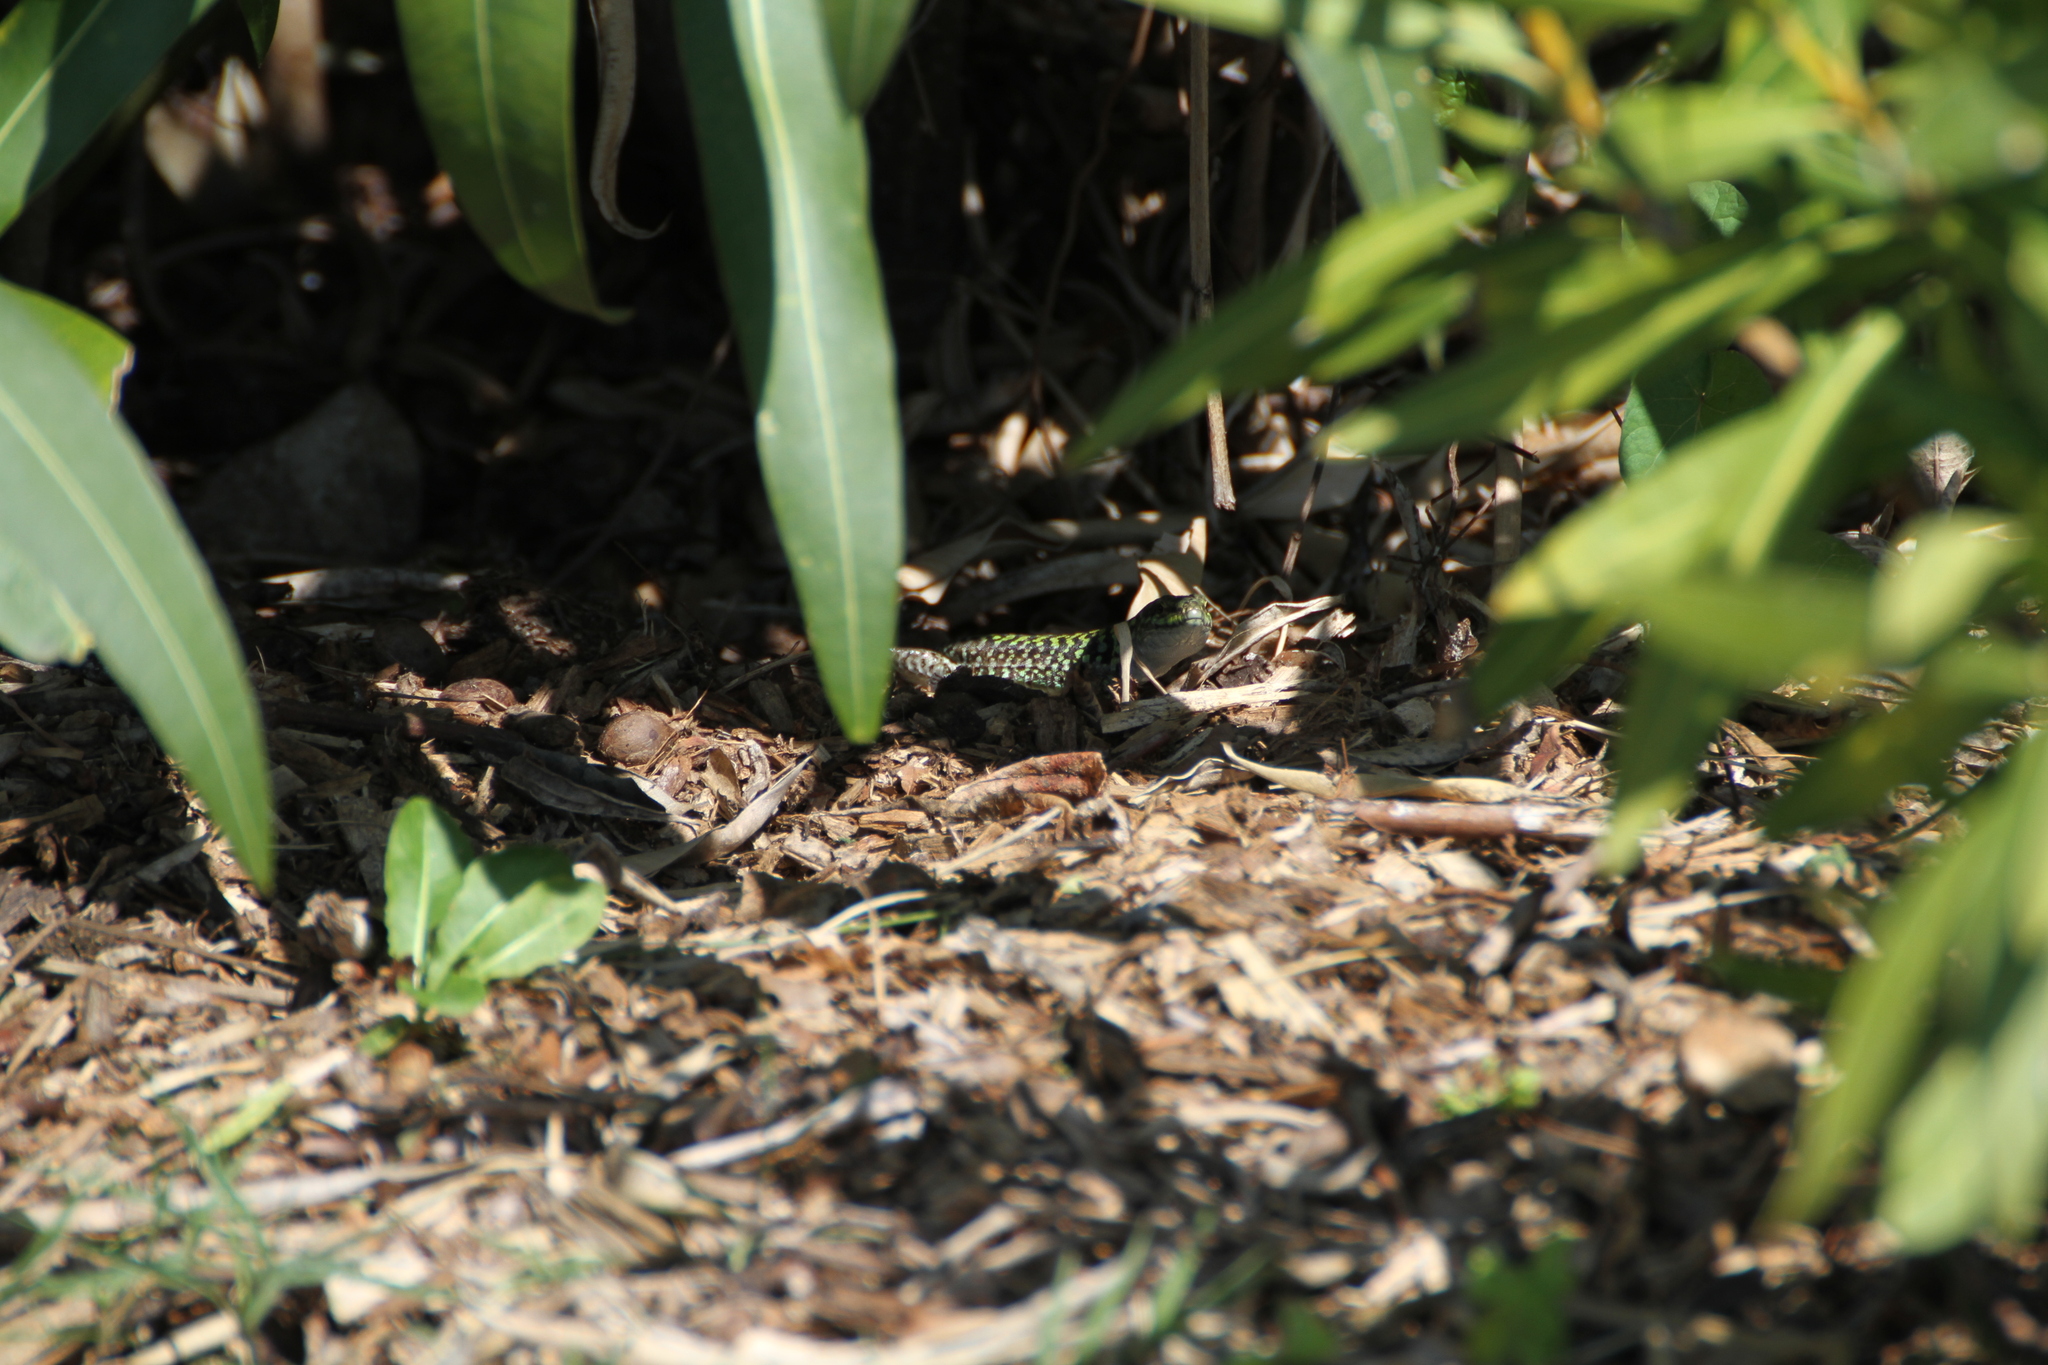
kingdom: Animalia
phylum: Chordata
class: Squamata
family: Lacertidae
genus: Podarcis
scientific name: Podarcis siculus
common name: Italian wall lizard
